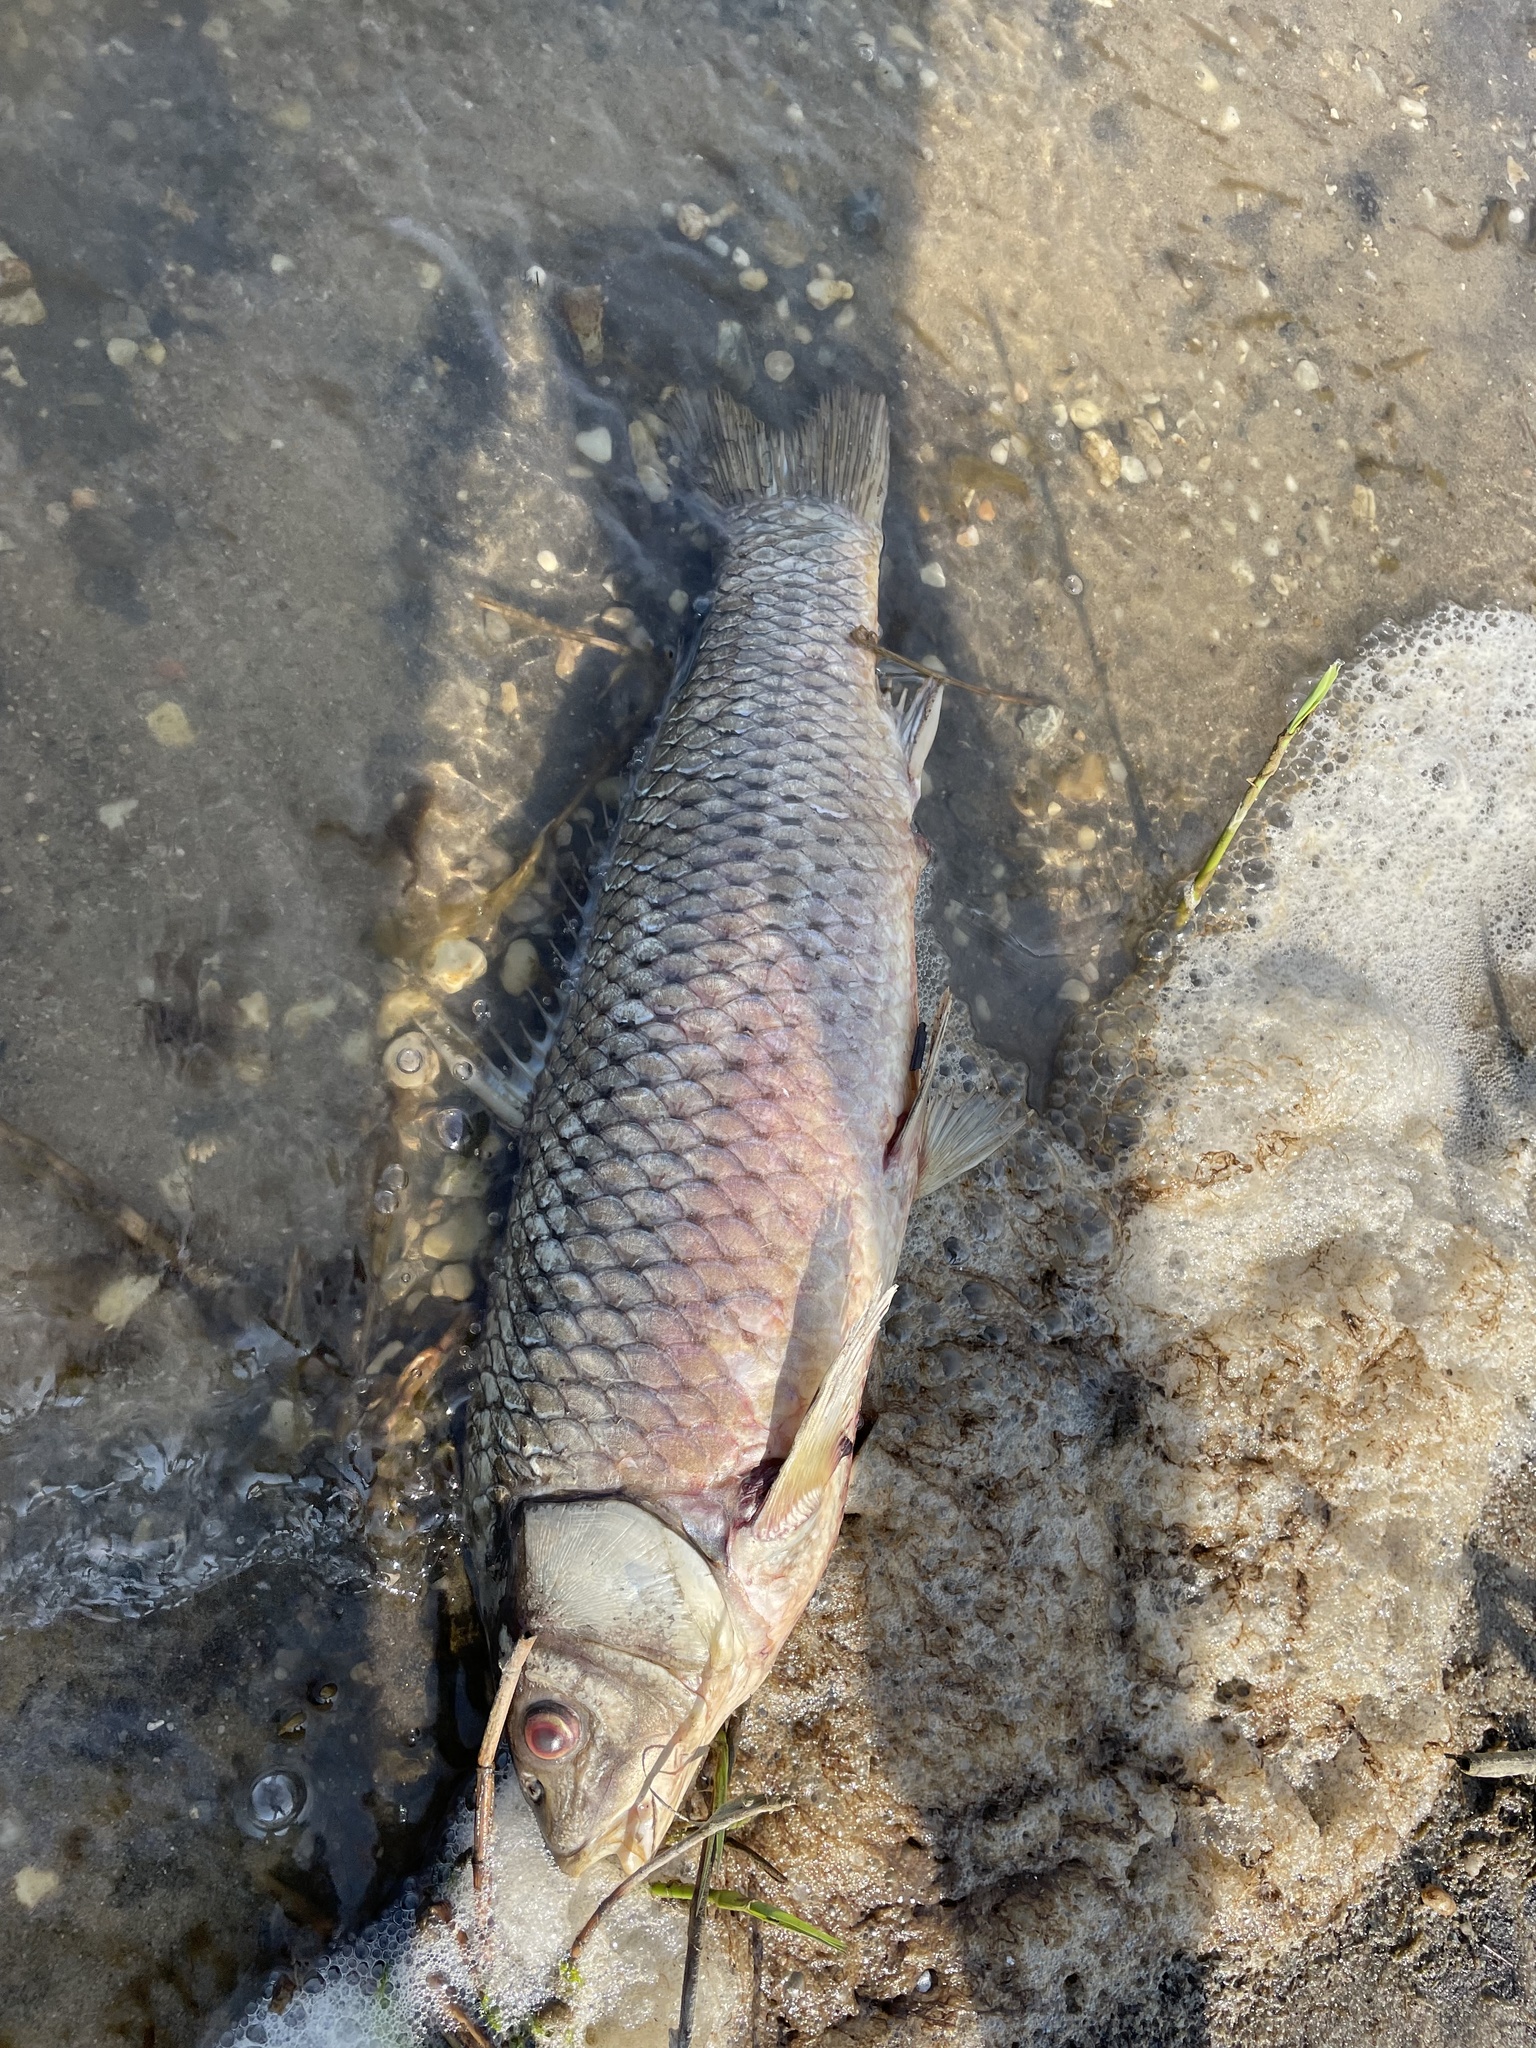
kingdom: Animalia
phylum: Chordata
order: Cypriniformes
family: Cyprinidae
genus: Cyprinus
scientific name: Cyprinus carpio
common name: Common carp
